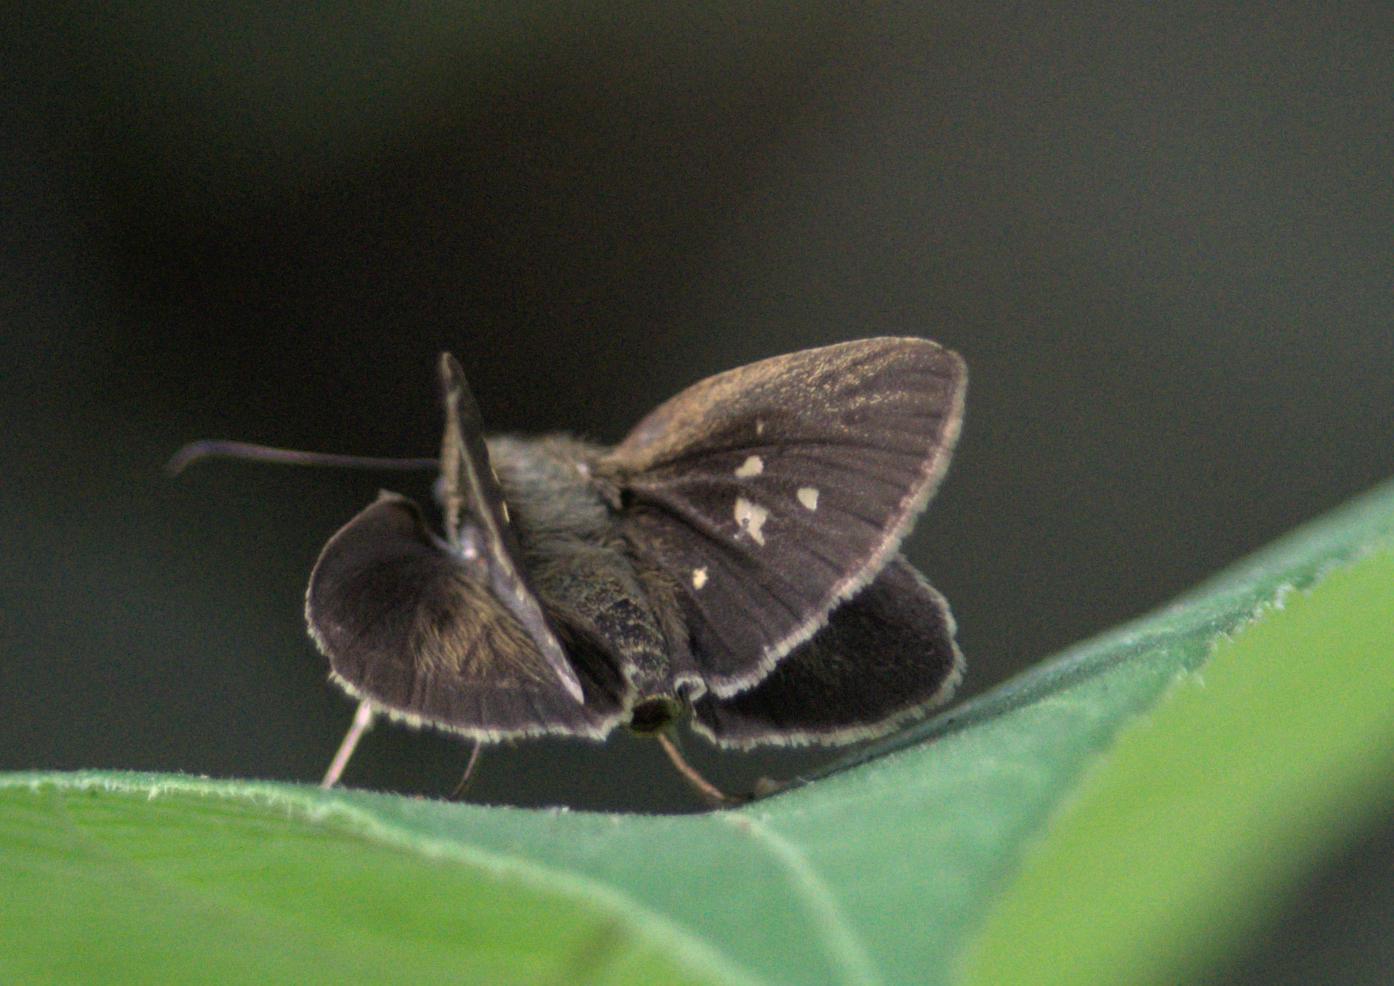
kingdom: Animalia
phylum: Arthropoda
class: Insecta
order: Lepidoptera
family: Hesperiidae
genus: Suastus
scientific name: Suastus gremius
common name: Indian palm bob
